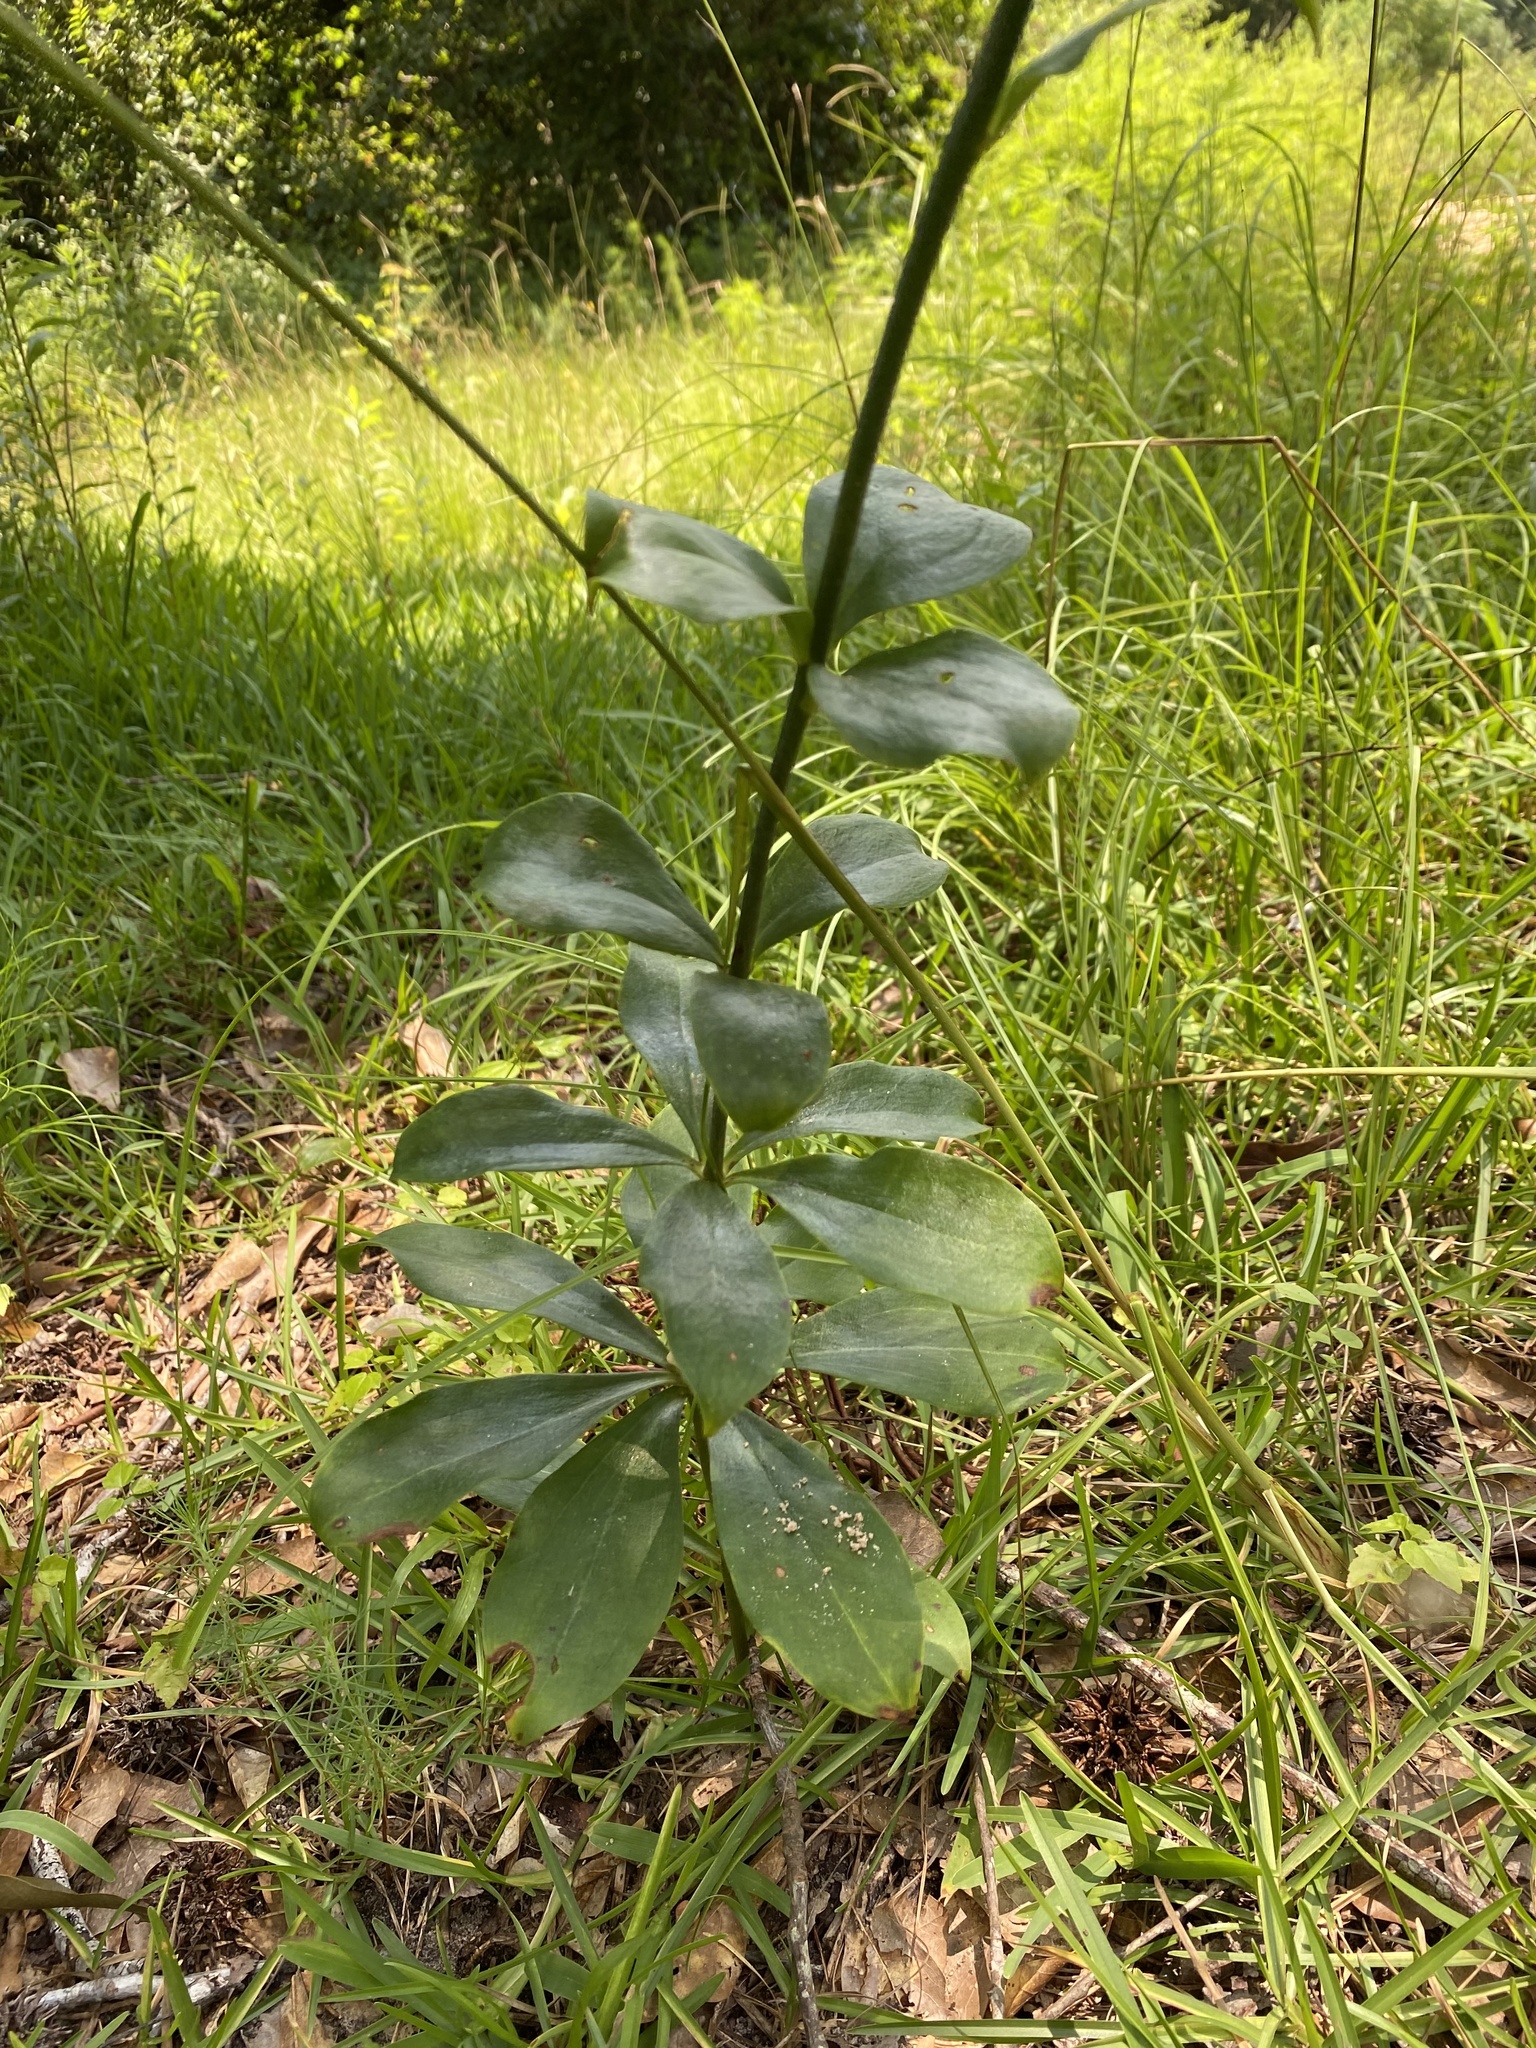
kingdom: Plantae
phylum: Tracheophyta
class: Liliopsida
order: Liliales
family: Liliaceae
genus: Lilium
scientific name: Lilium michauxii
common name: Carolina lily
